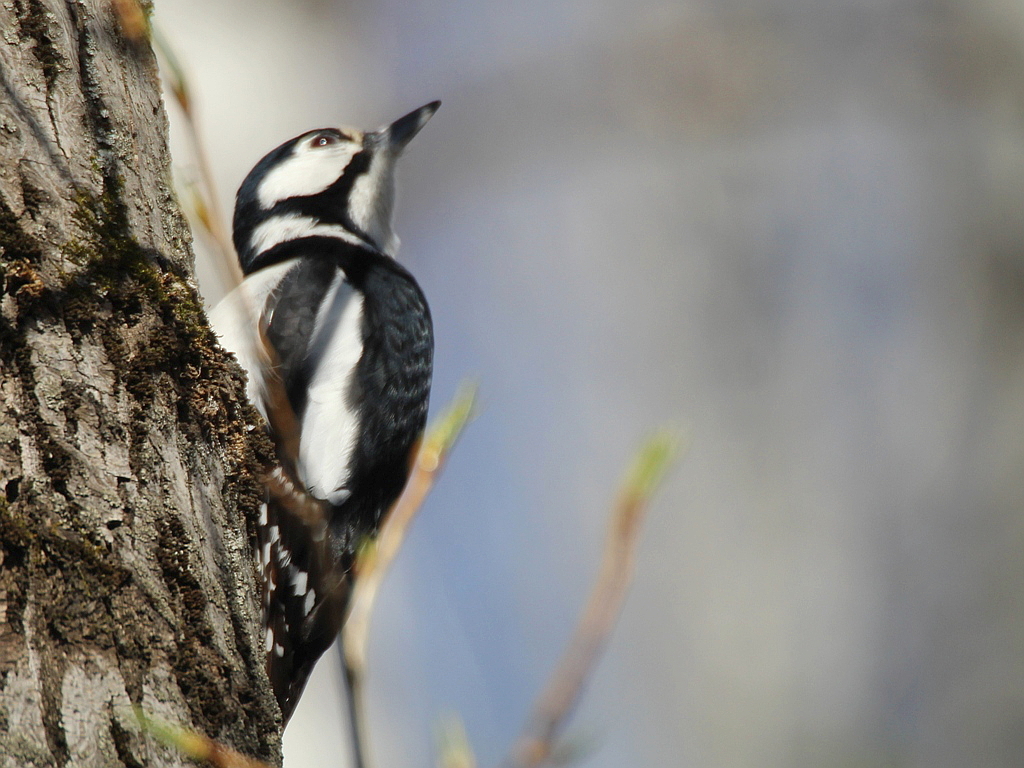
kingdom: Animalia
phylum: Chordata
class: Aves
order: Piciformes
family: Picidae
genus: Dendrocopos
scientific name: Dendrocopos major
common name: Great spotted woodpecker
